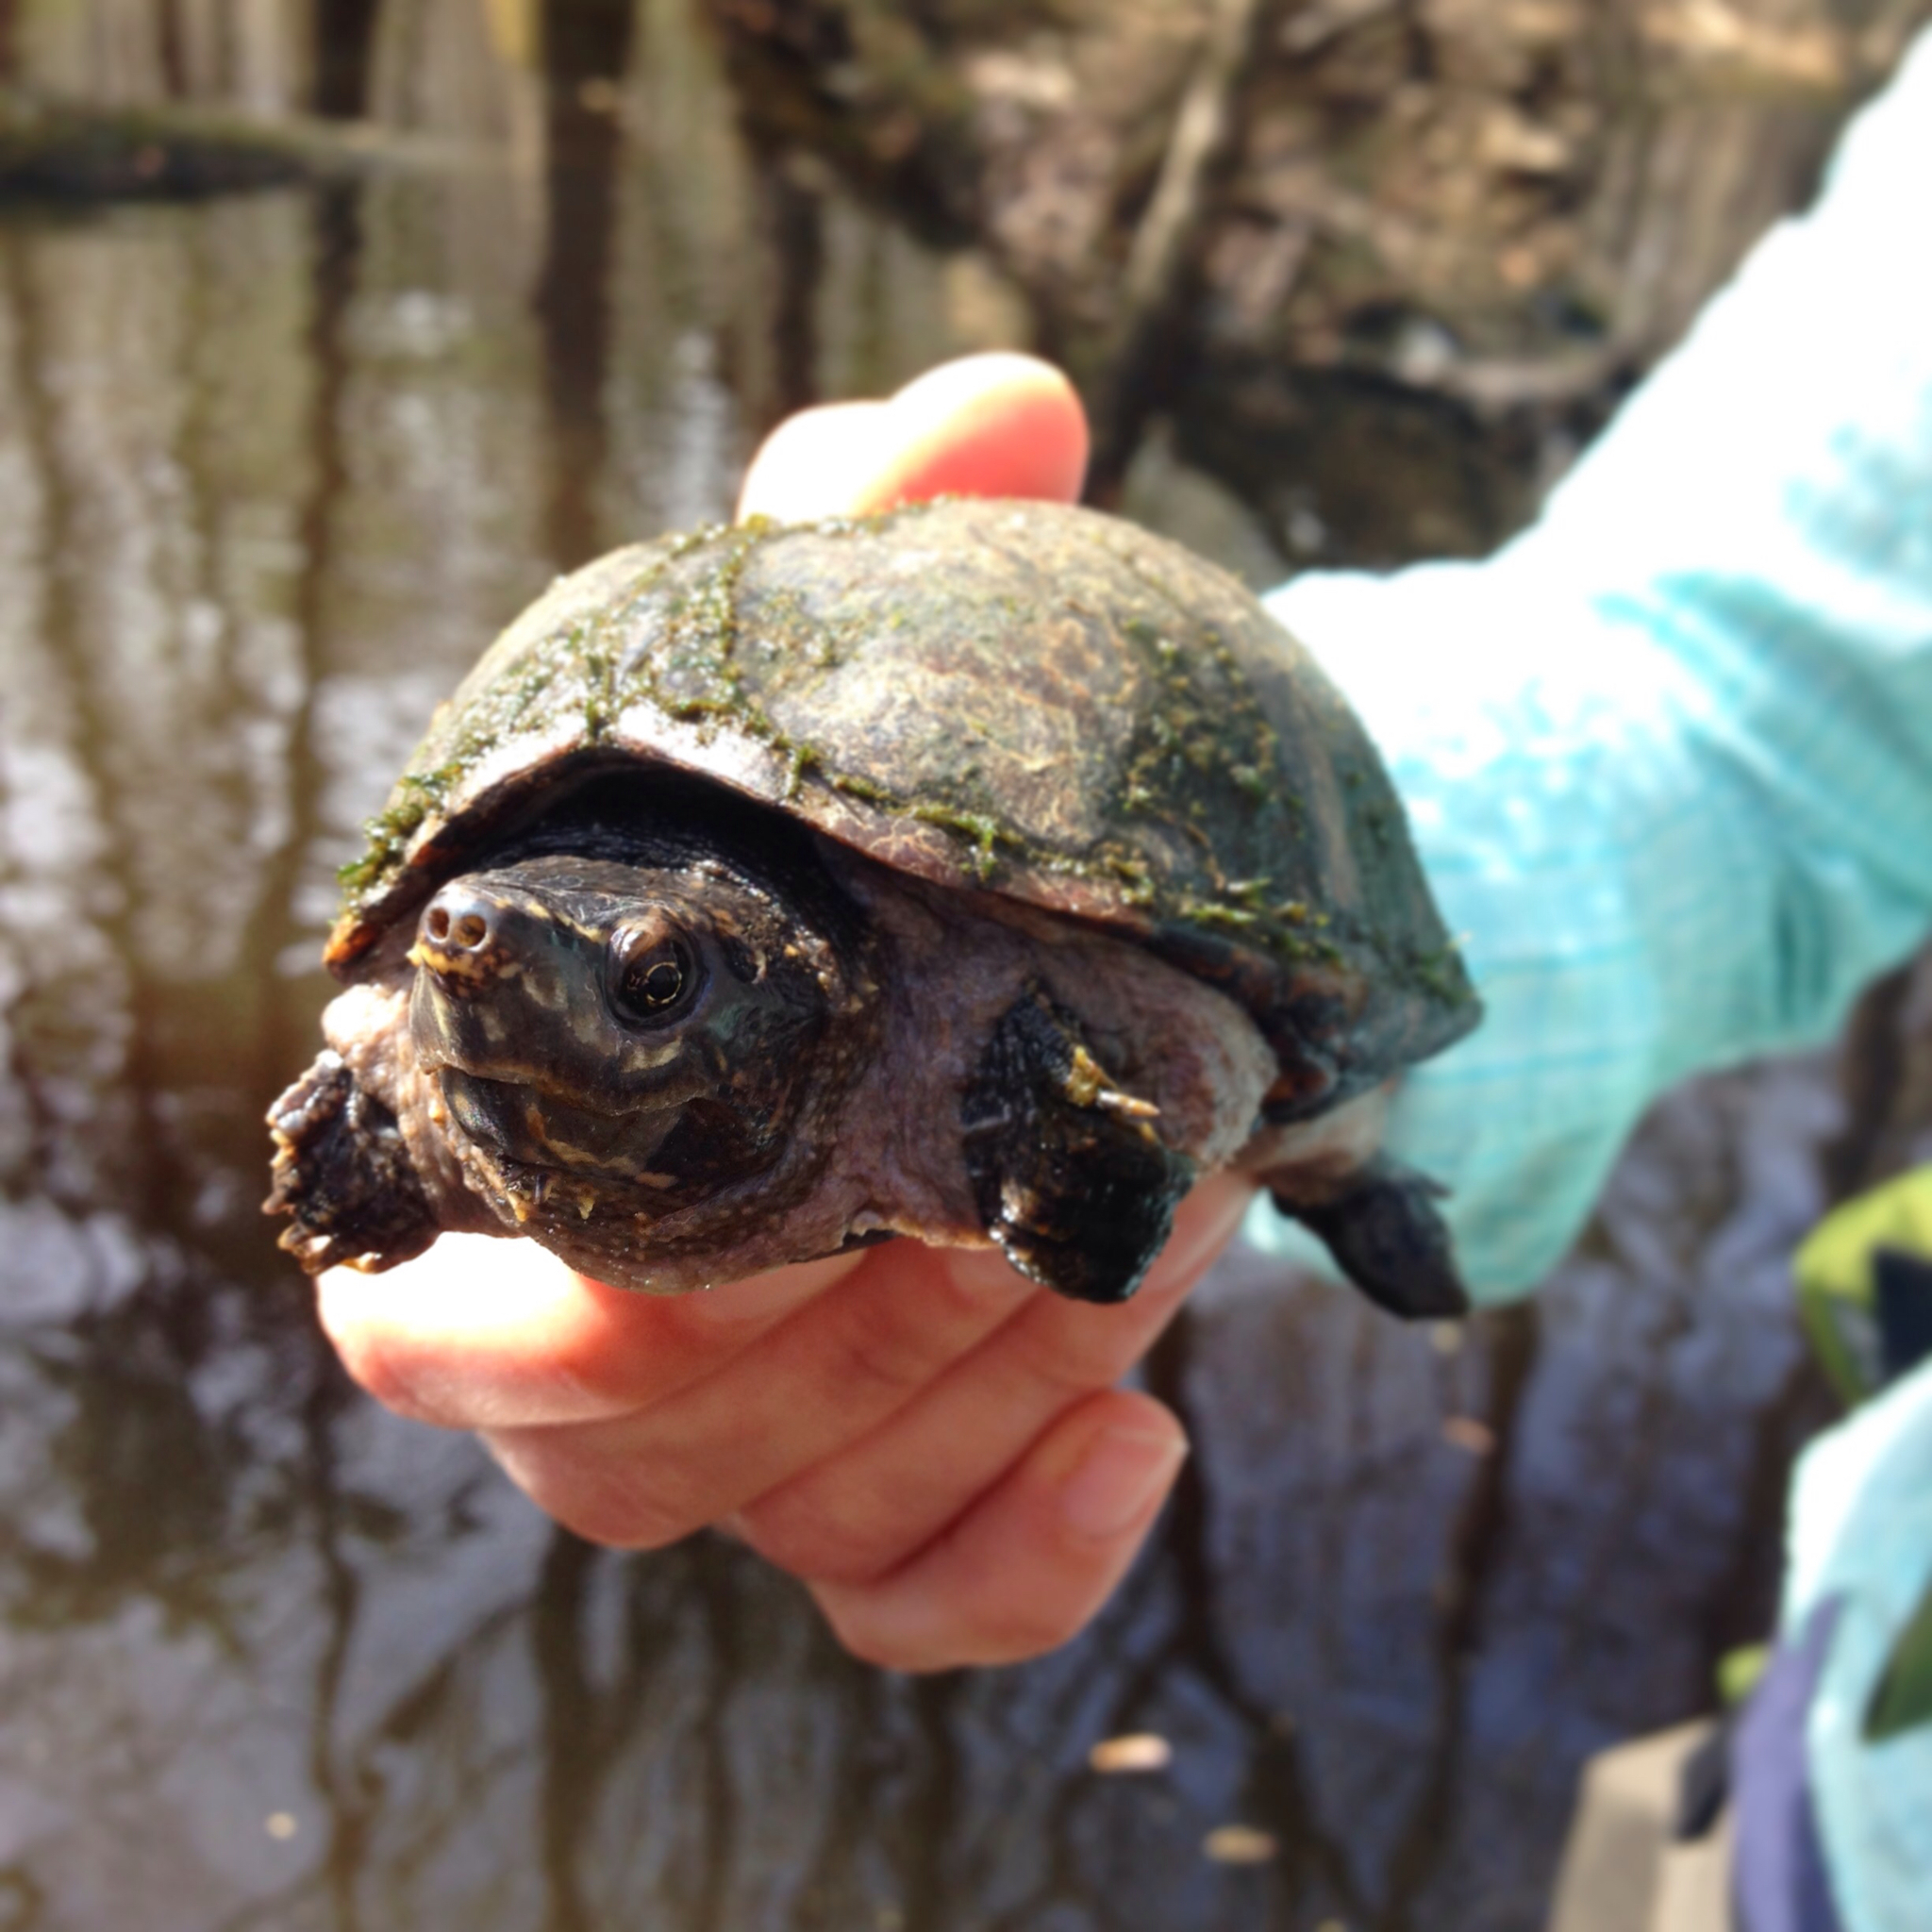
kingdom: Animalia
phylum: Chordata
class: Testudines
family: Kinosternidae
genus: Sternotherus
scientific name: Sternotherus odoratus
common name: Common musk turtle
